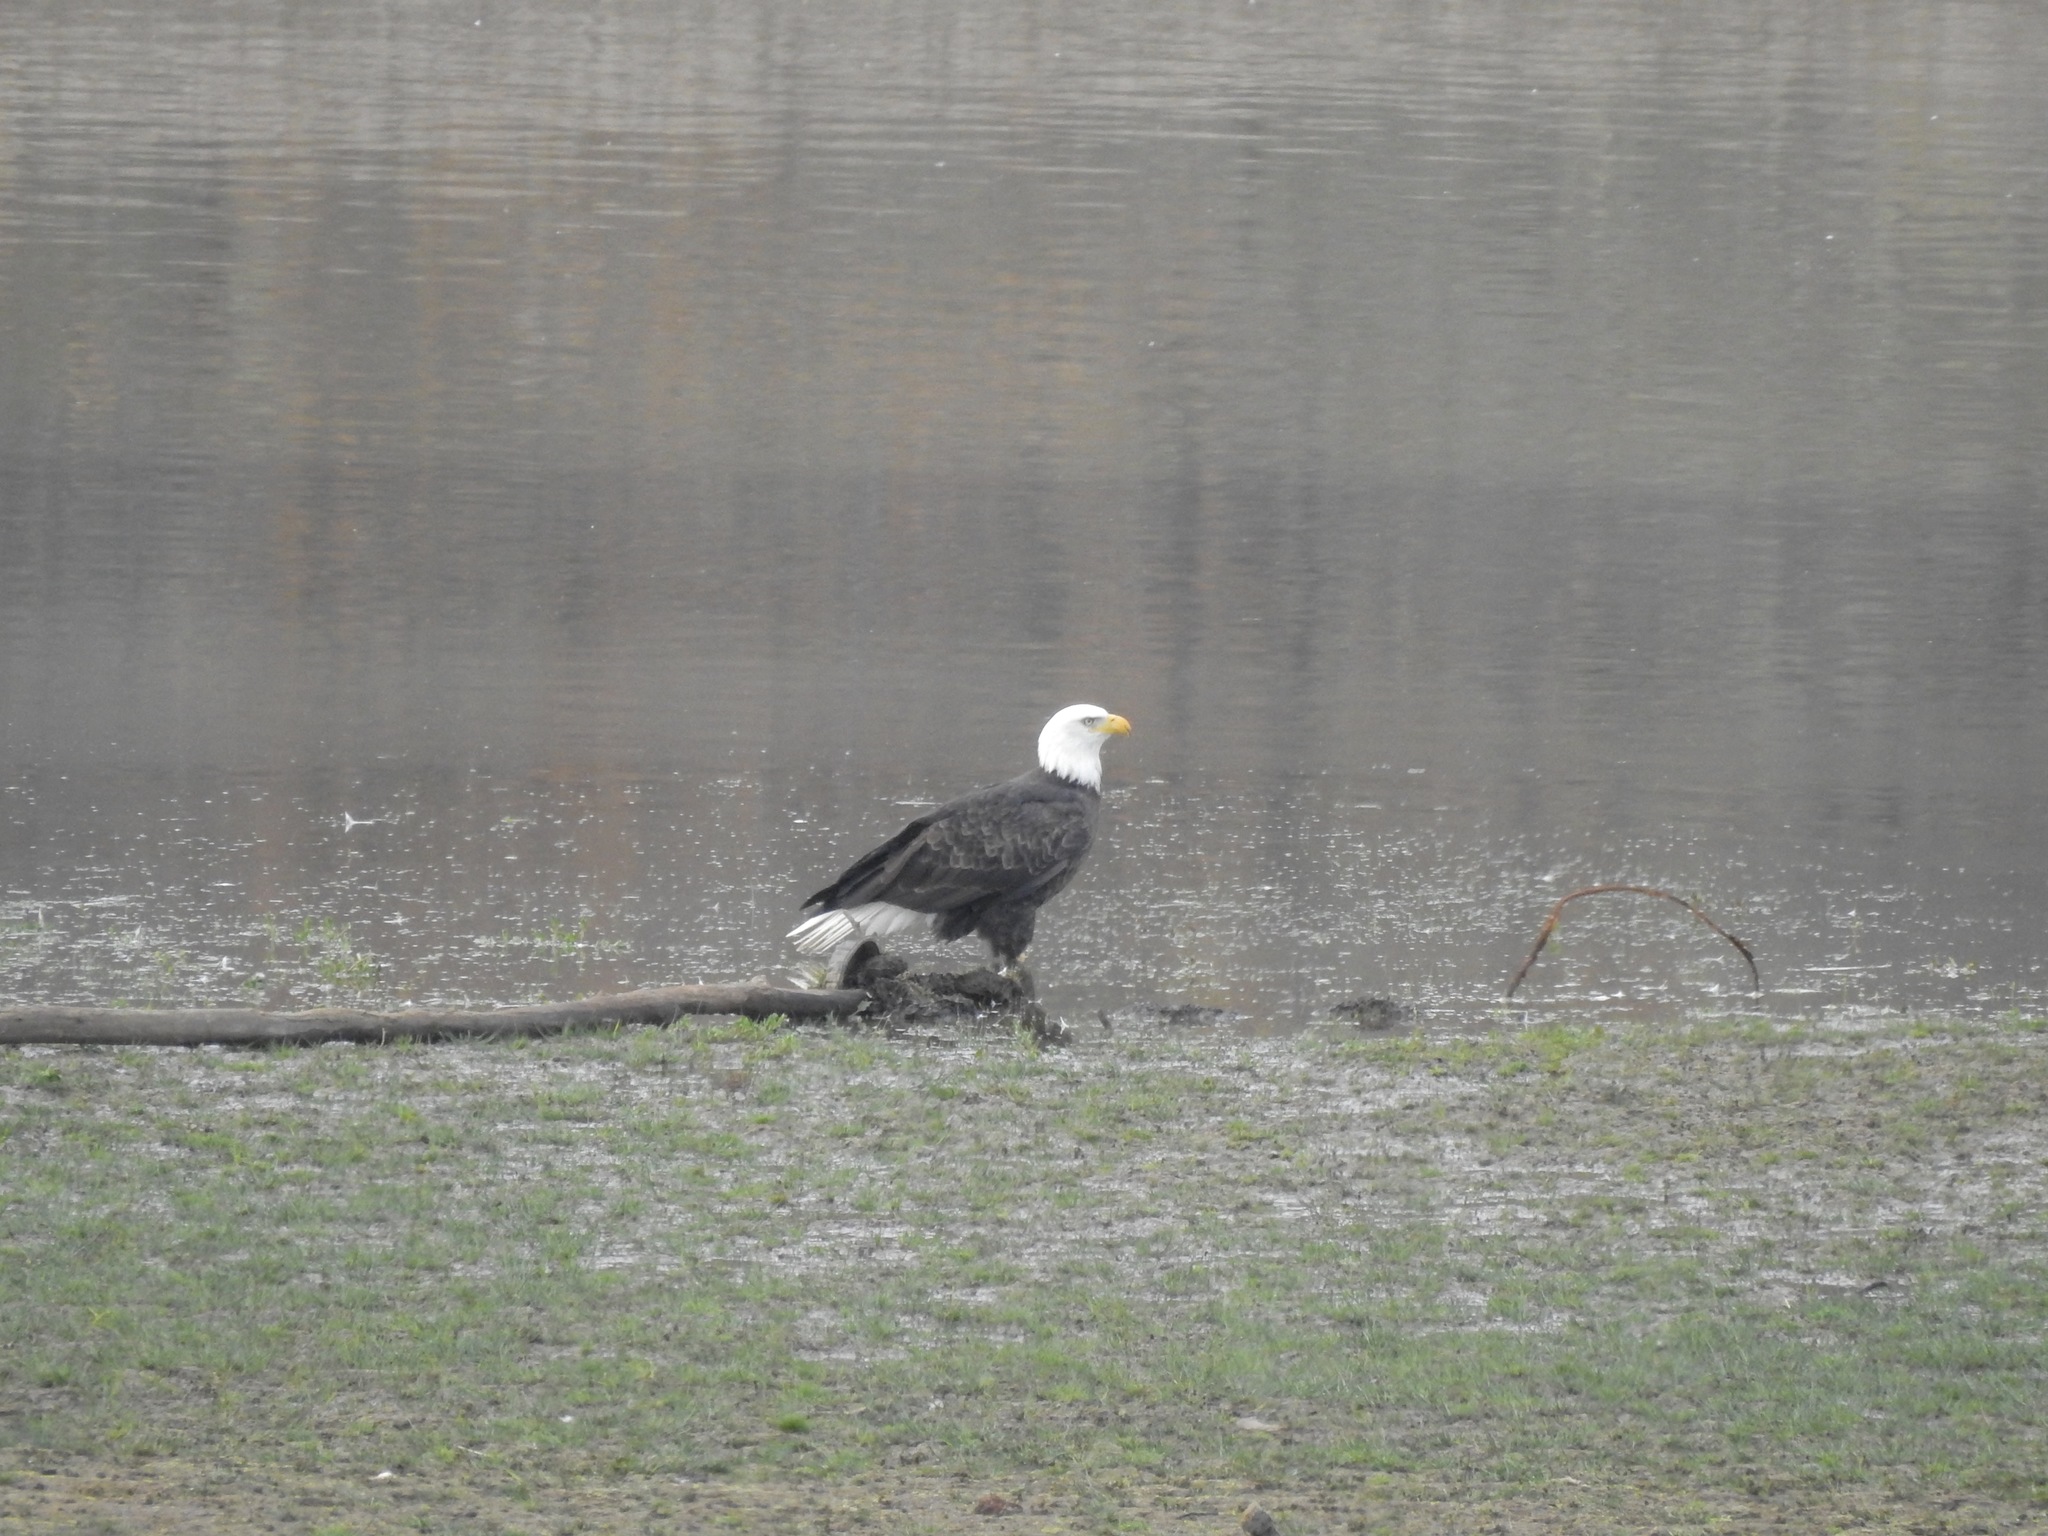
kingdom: Animalia
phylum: Chordata
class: Aves
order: Accipitriformes
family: Accipitridae
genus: Haliaeetus
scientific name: Haliaeetus leucocephalus
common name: Bald eagle
